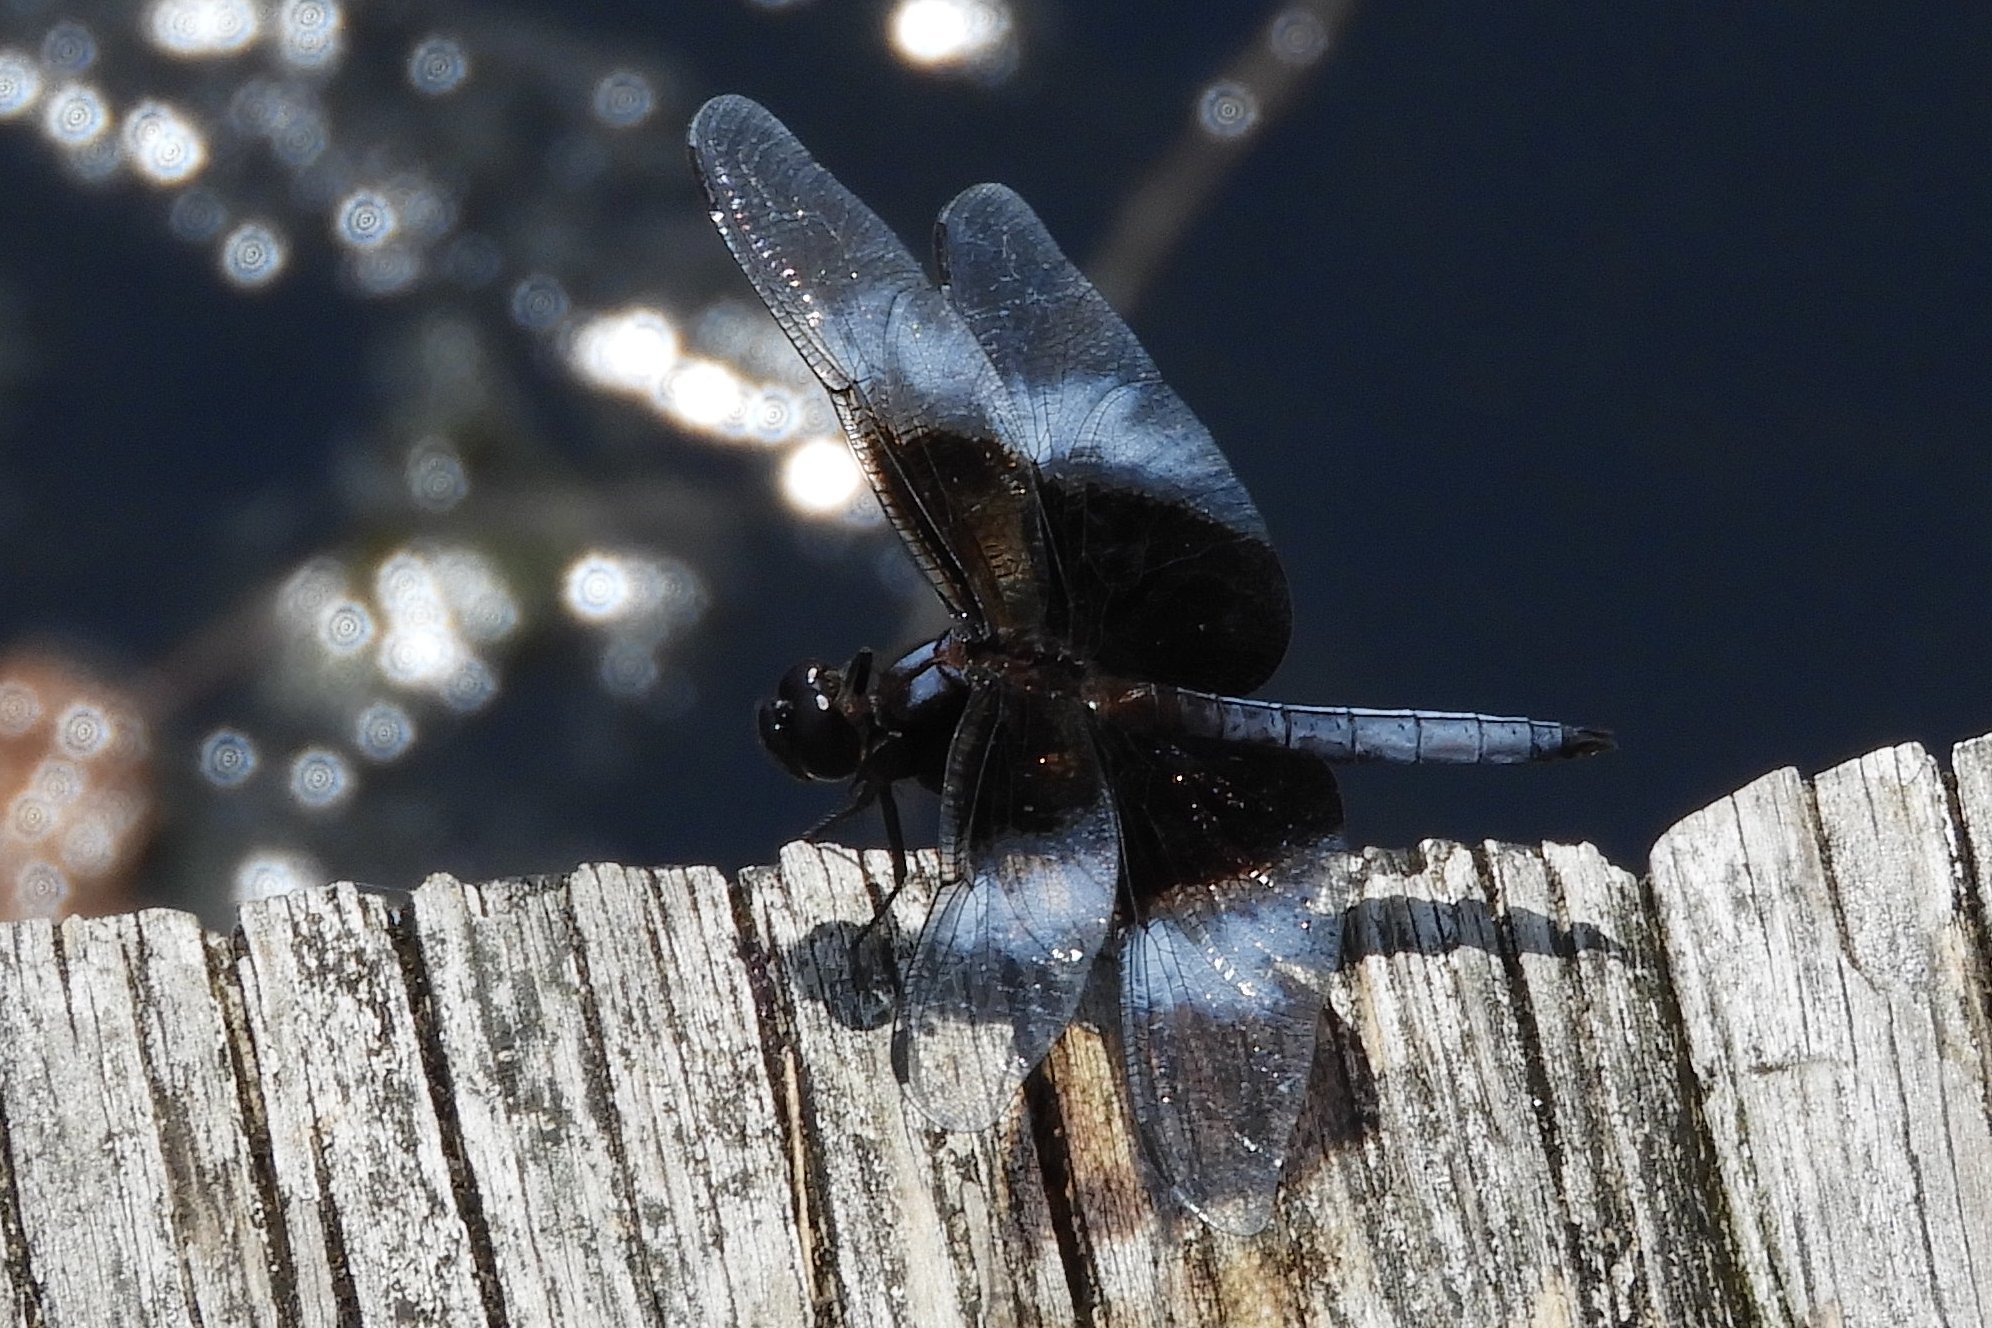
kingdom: Animalia
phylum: Arthropoda
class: Insecta
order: Odonata
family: Libellulidae
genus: Libellula
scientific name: Libellula luctuosa
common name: Widow skimmer
